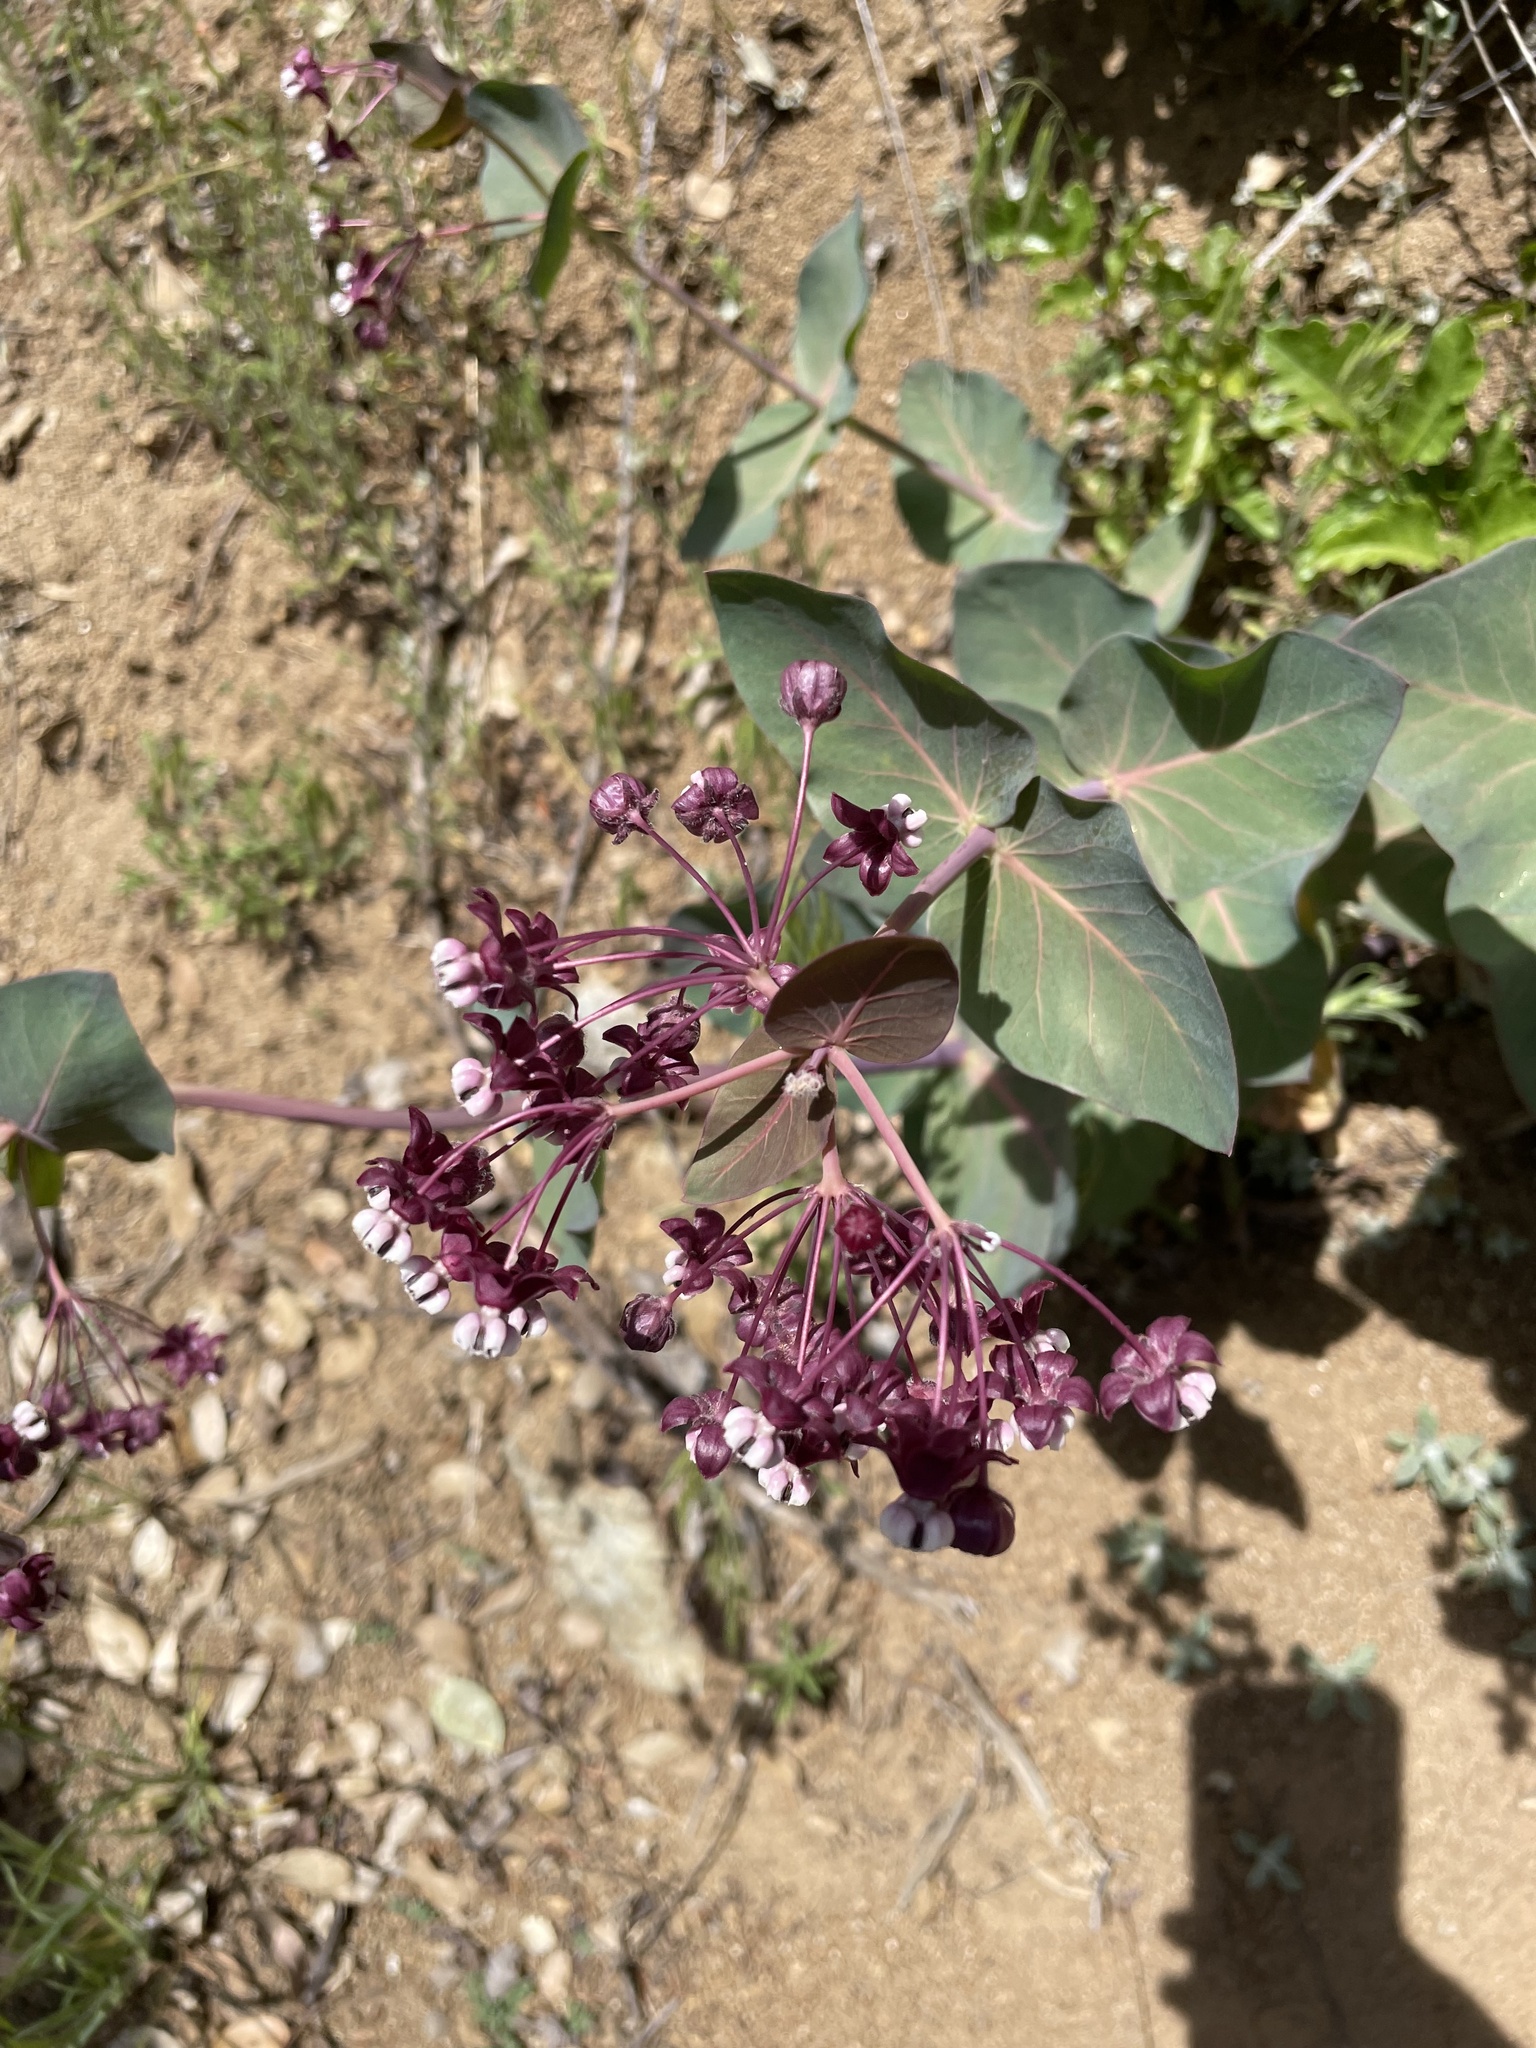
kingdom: Plantae
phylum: Tracheophyta
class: Magnoliopsida
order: Gentianales
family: Apocynaceae
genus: Asclepias
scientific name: Asclepias cordifolia
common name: Purple milkweed
